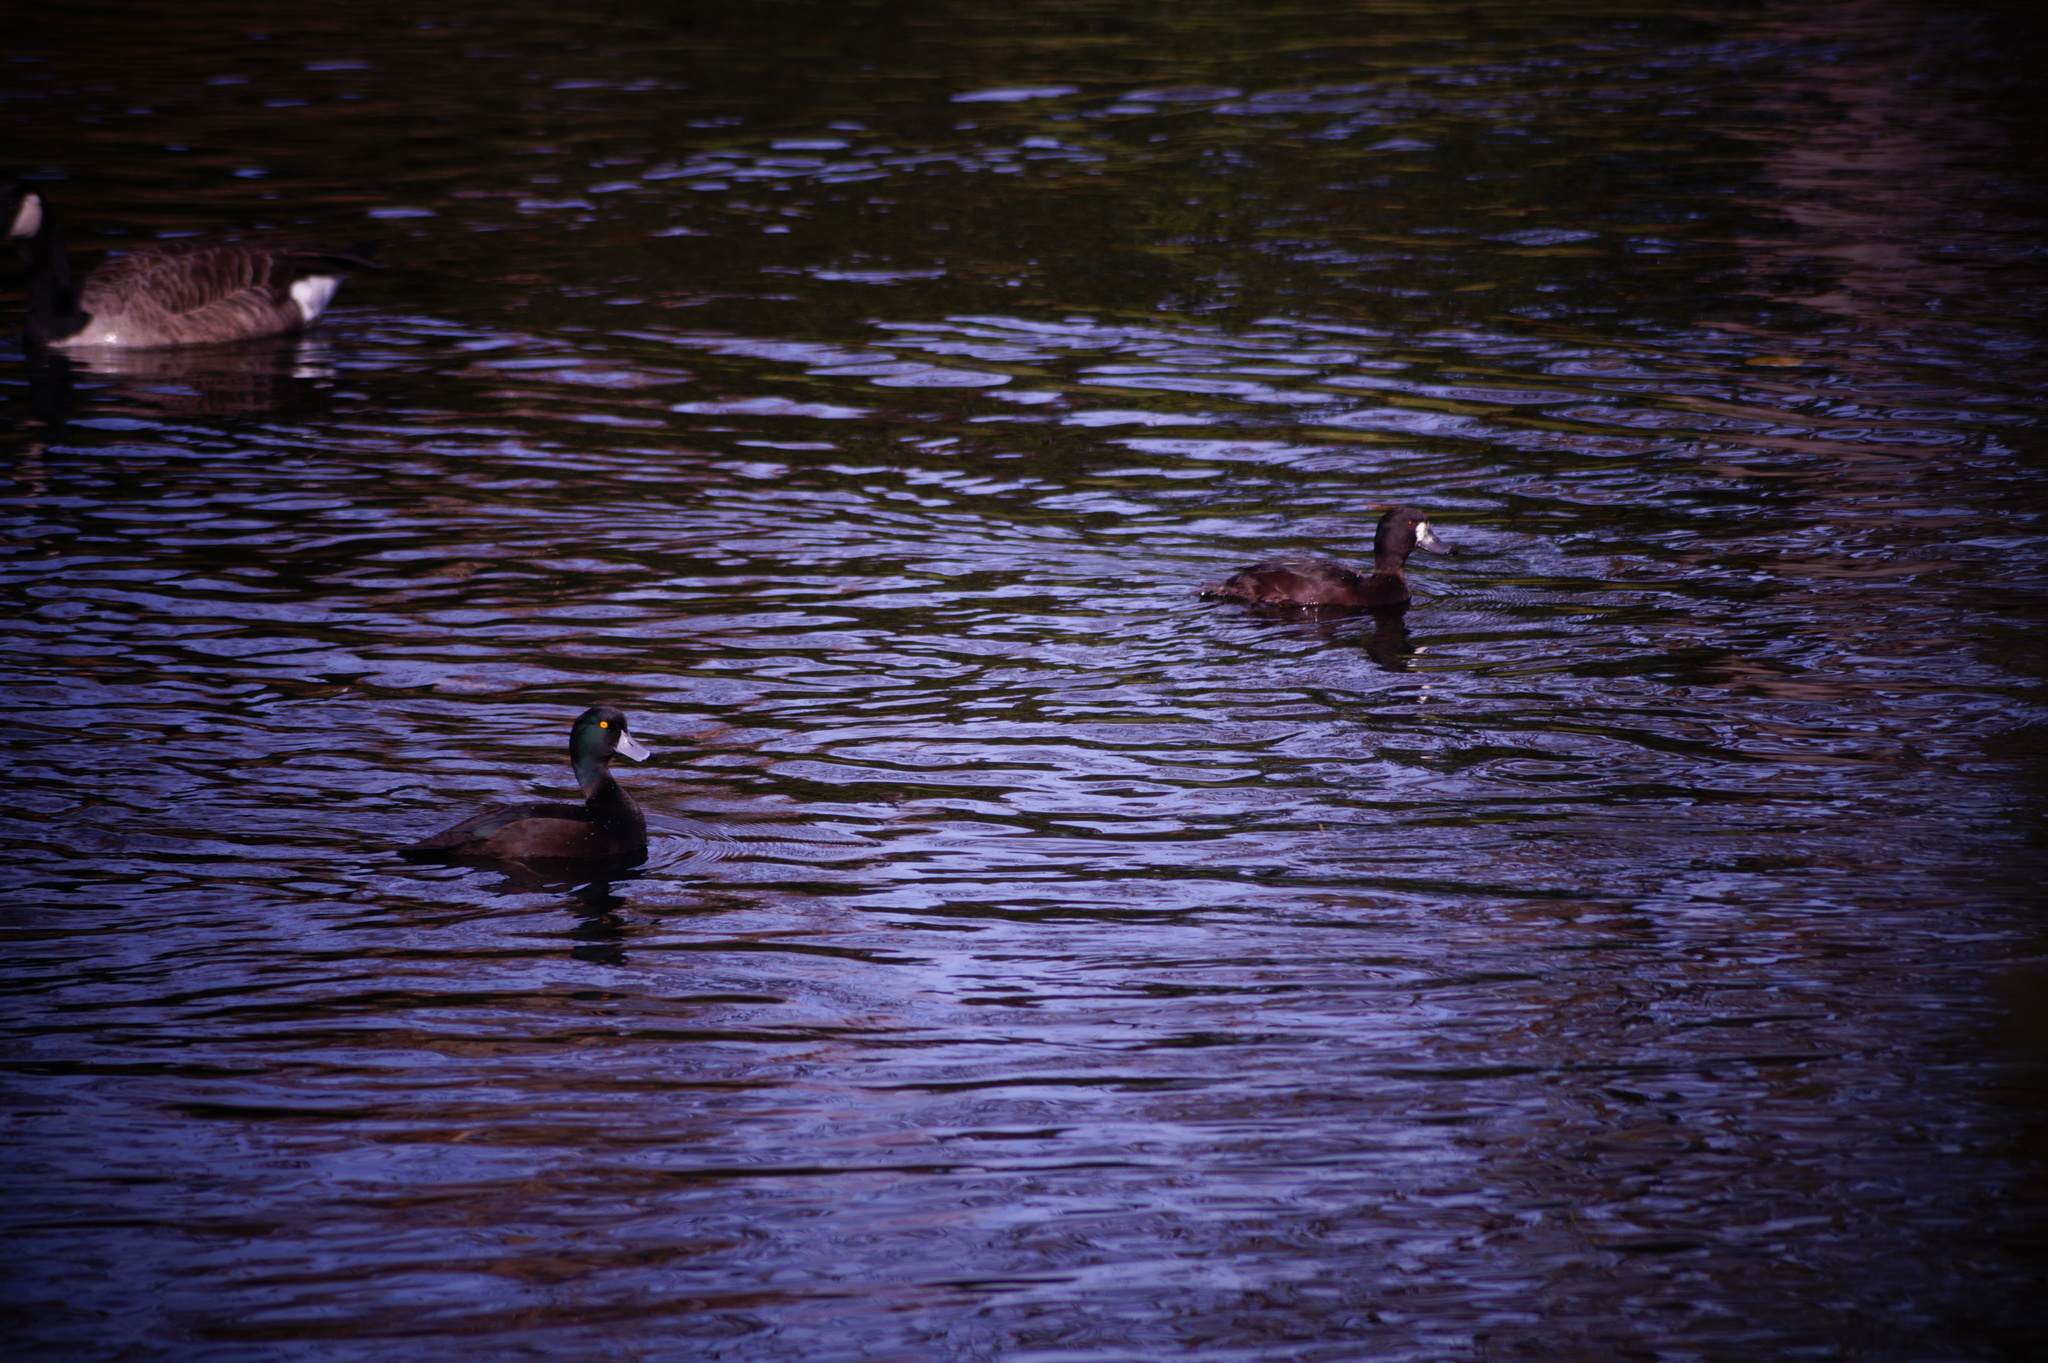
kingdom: Animalia
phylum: Chordata
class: Aves
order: Anseriformes
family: Anatidae
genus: Aythya
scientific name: Aythya novaeseelandiae
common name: New zealand scaup
